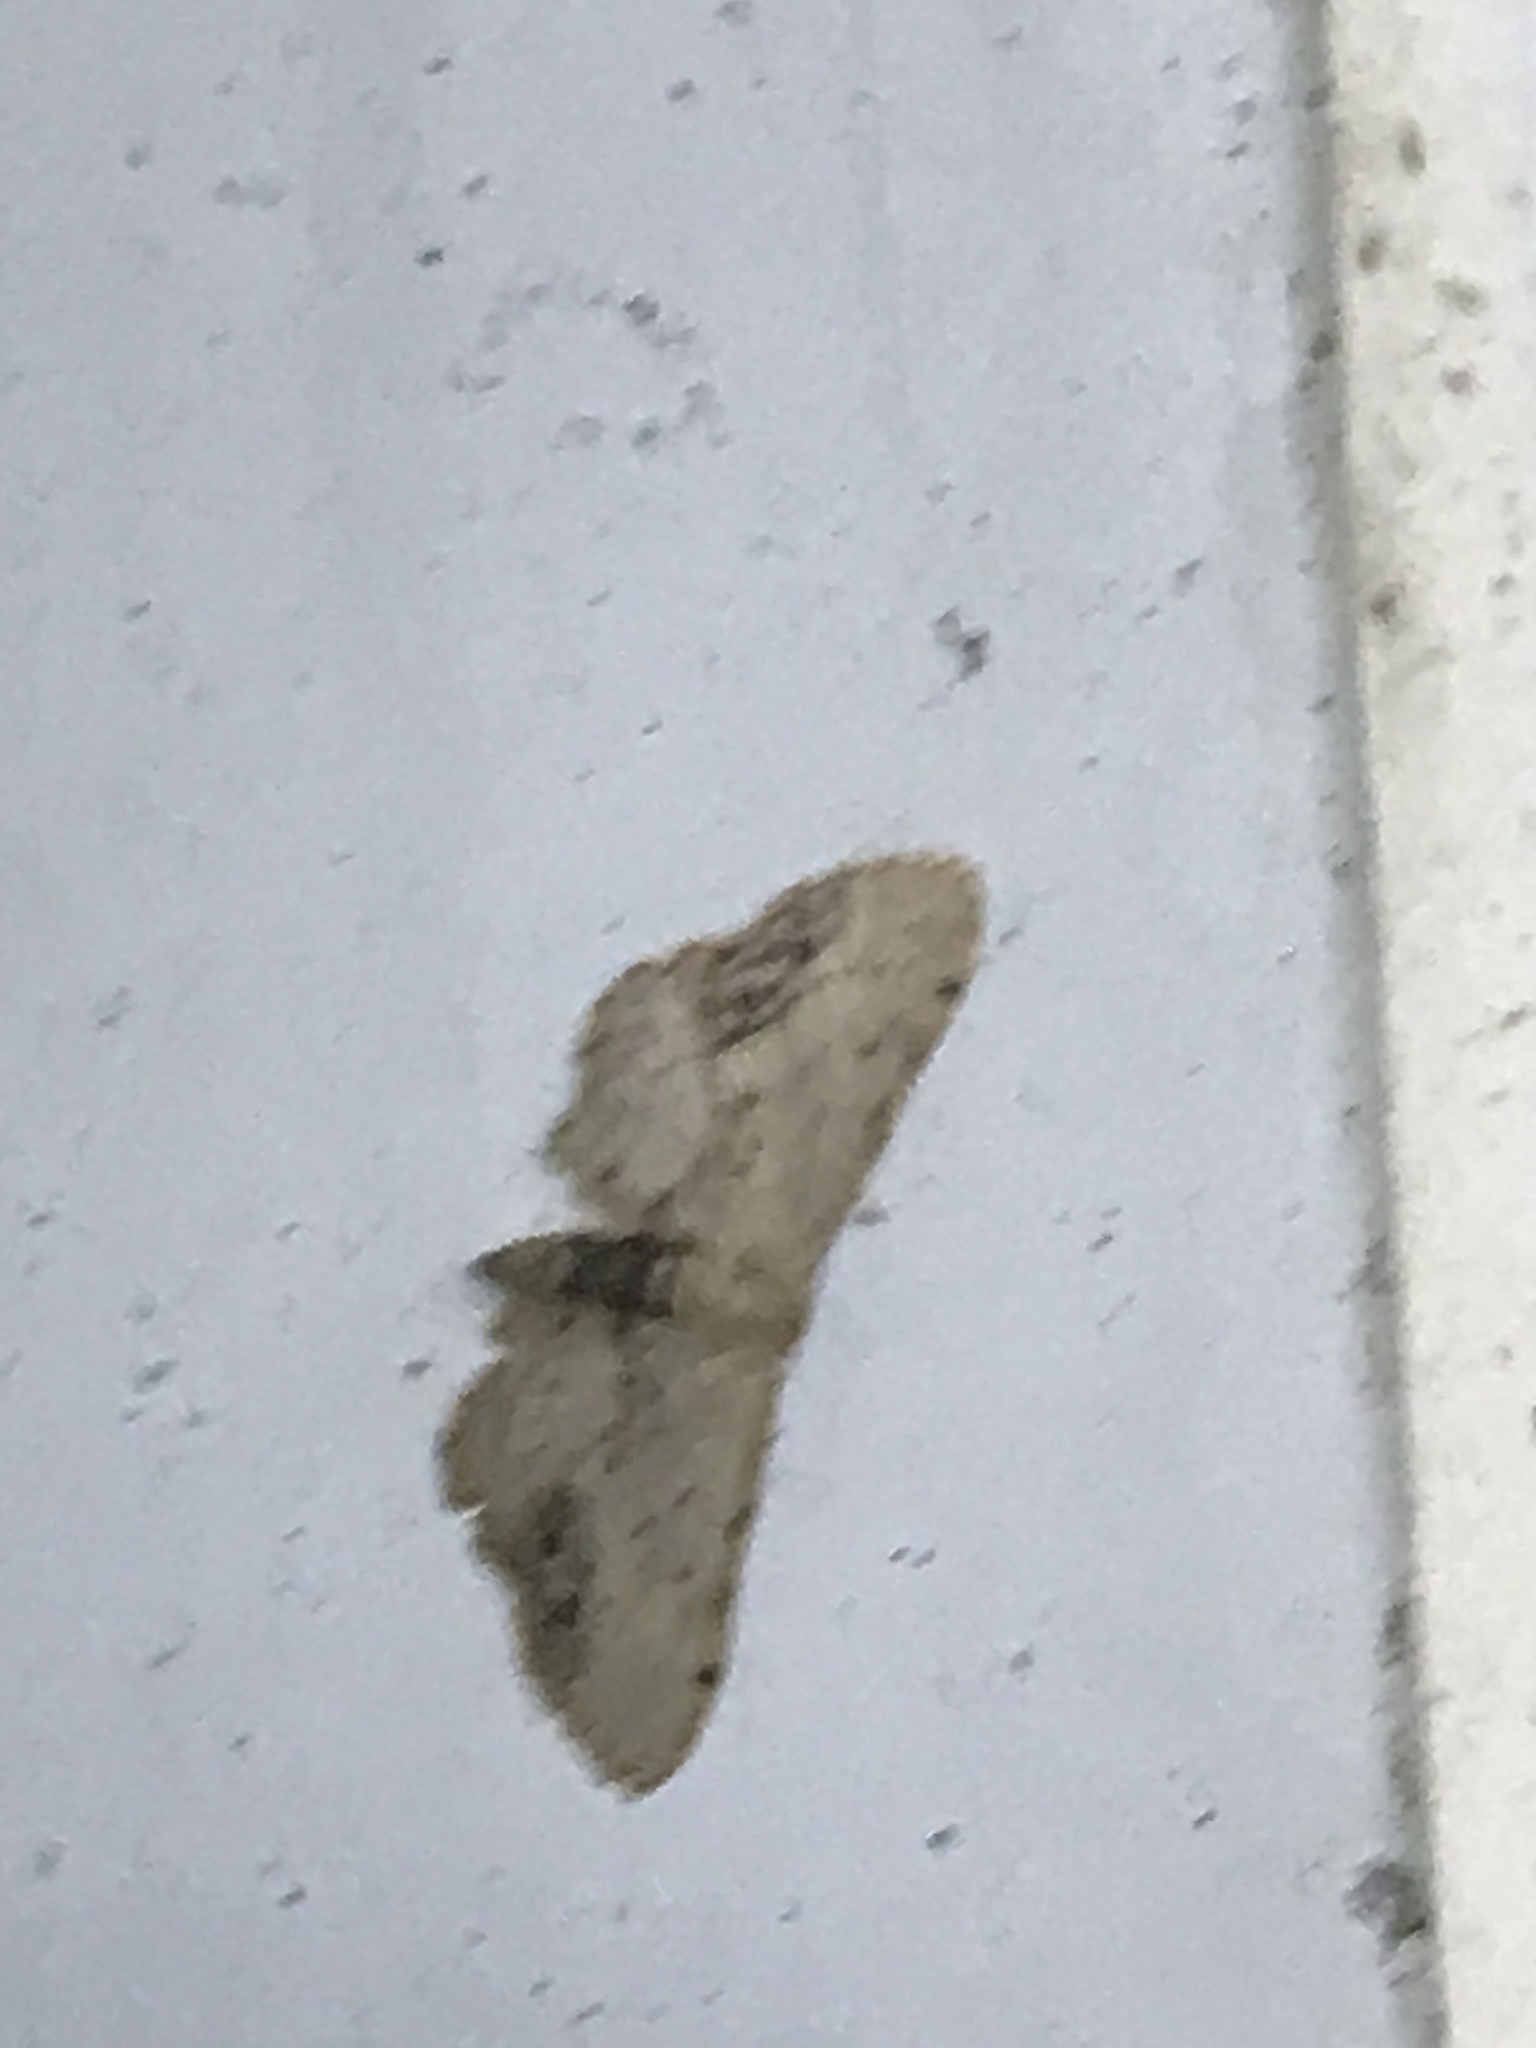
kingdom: Animalia
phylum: Arthropoda
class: Insecta
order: Lepidoptera
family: Geometridae
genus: Idaea
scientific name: Idaea dimidiata
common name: Single-dotted wave
